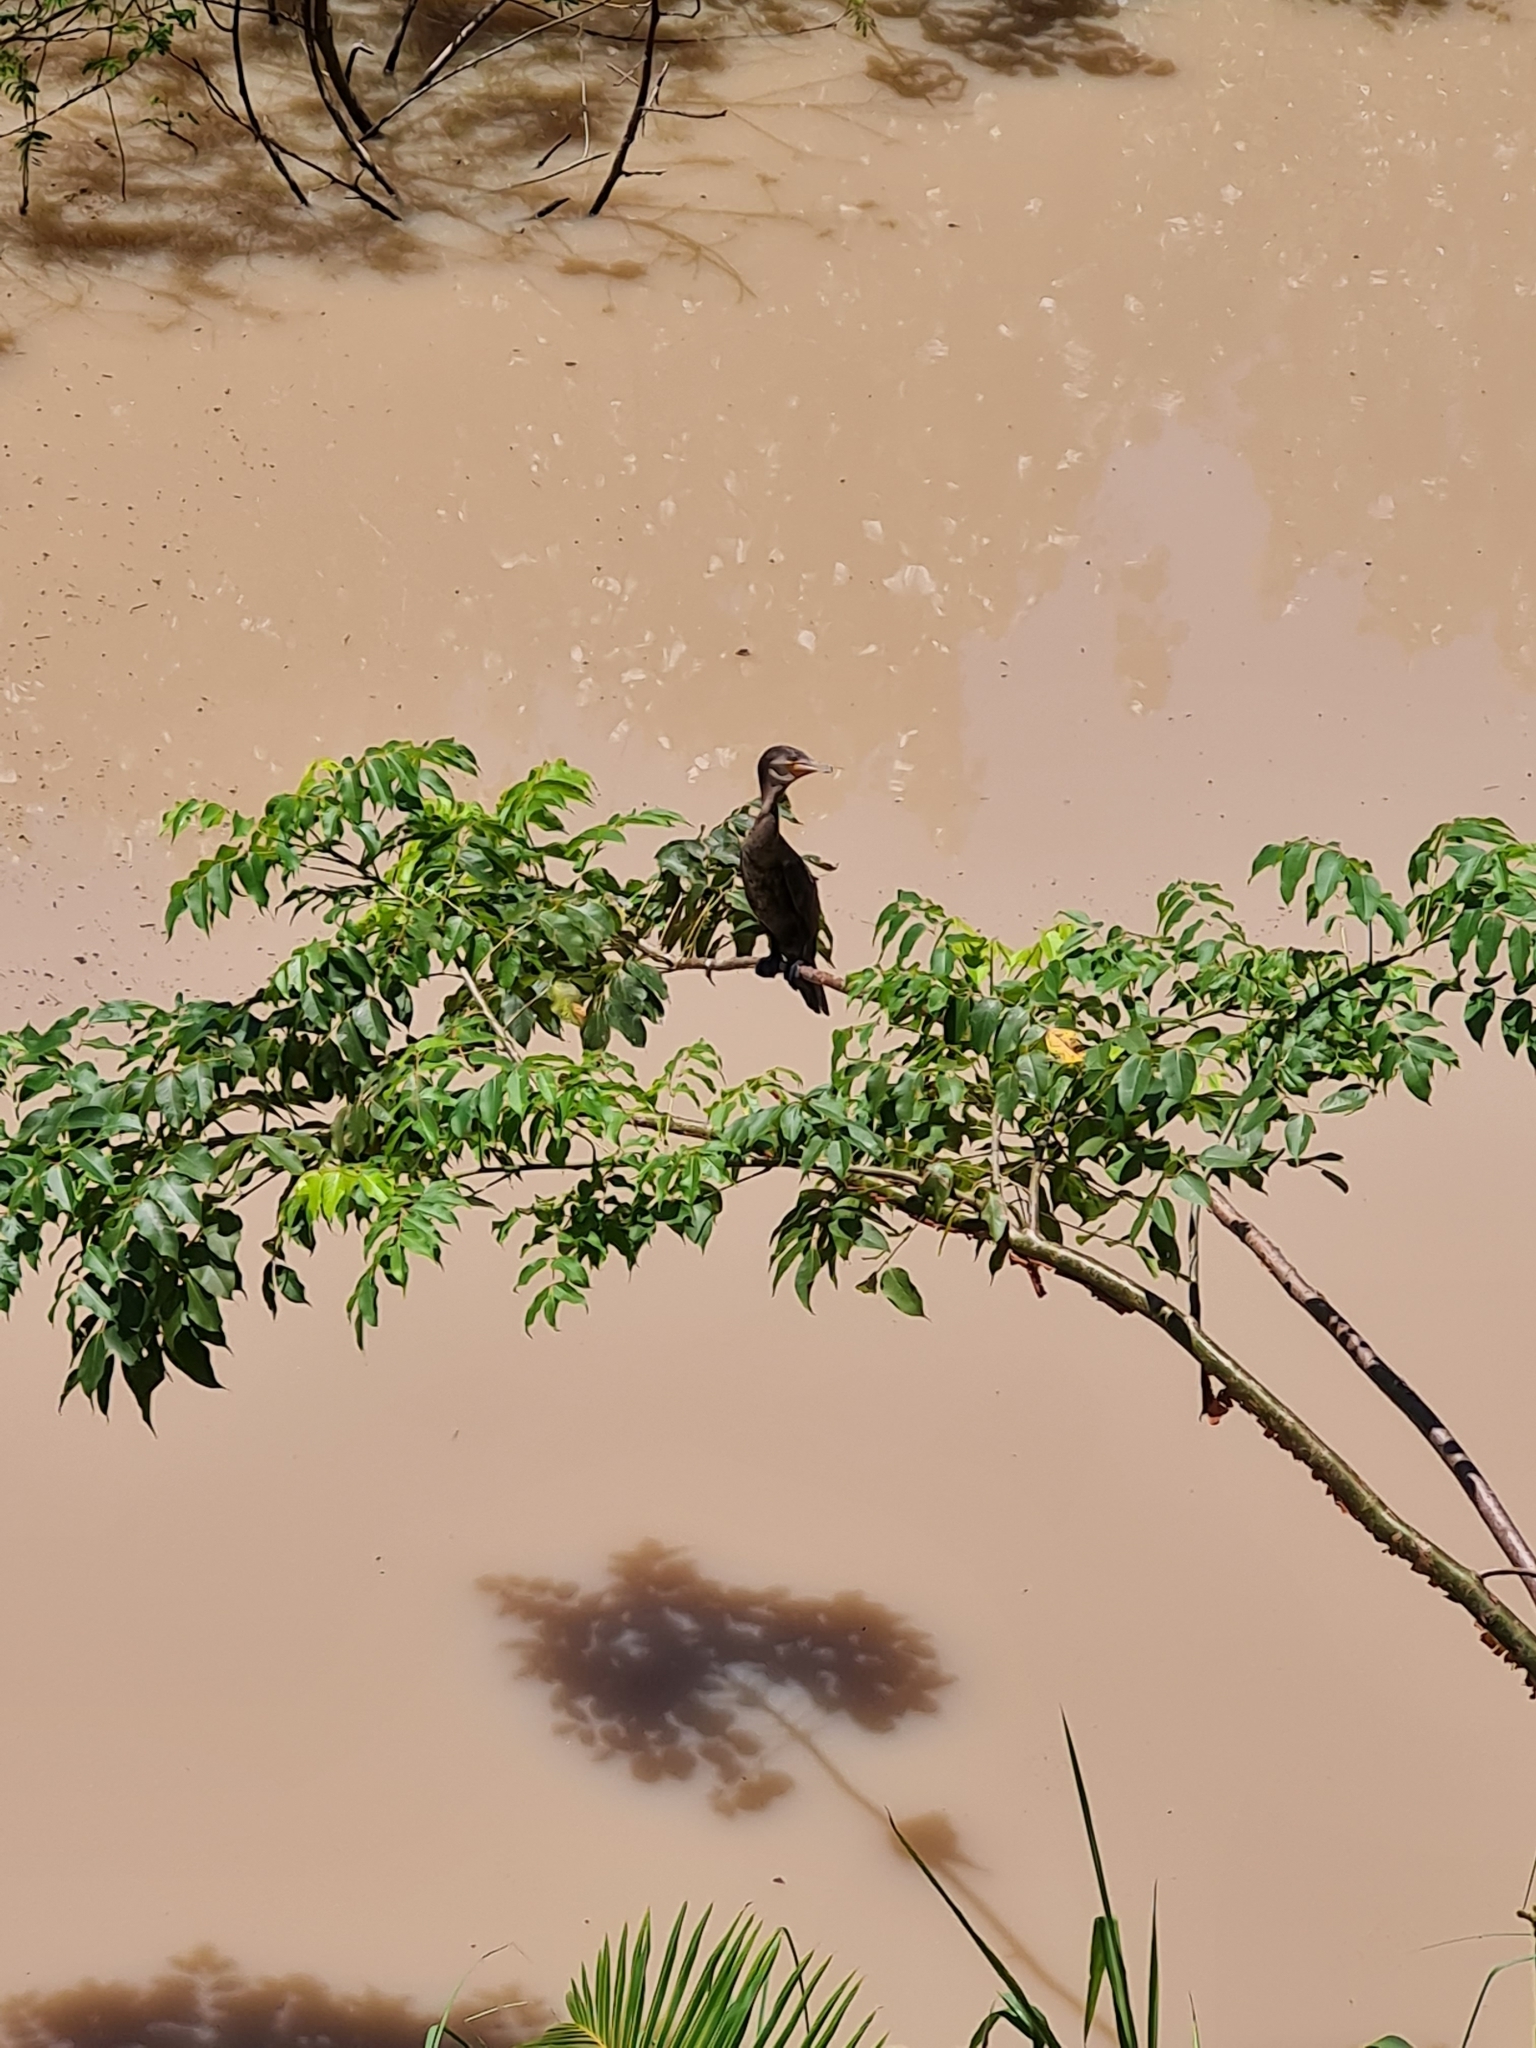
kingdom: Animalia
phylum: Chordata
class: Aves
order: Suliformes
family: Phalacrocoracidae
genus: Phalacrocorax
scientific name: Phalacrocorax brasilianus
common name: Neotropic cormorant
